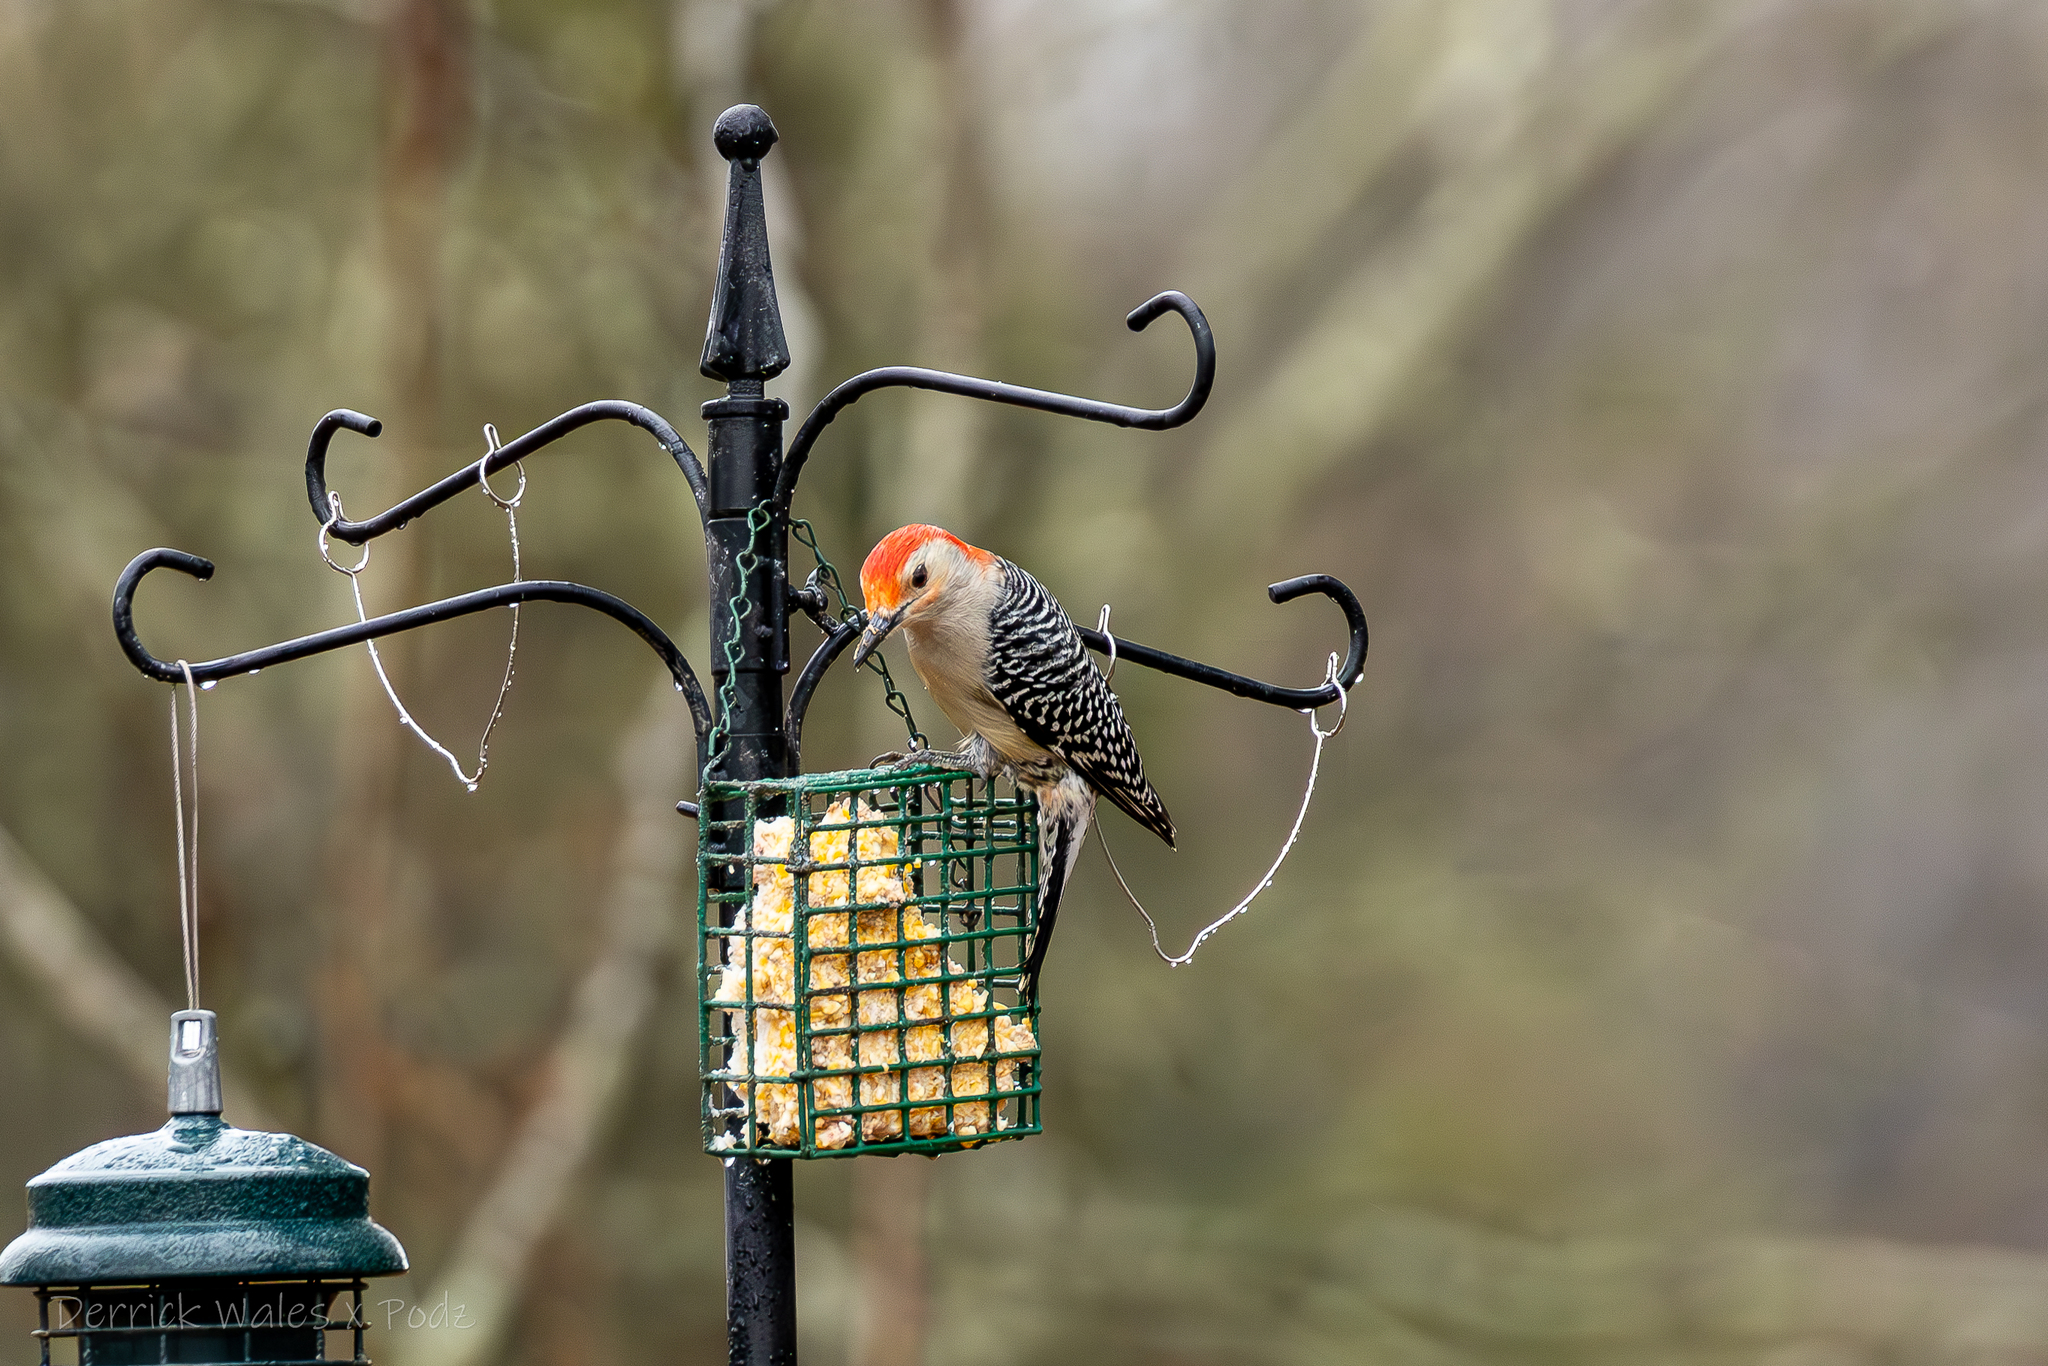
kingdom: Animalia
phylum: Chordata
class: Aves
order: Piciformes
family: Picidae
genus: Melanerpes
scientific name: Melanerpes carolinus
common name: Red-bellied woodpecker
